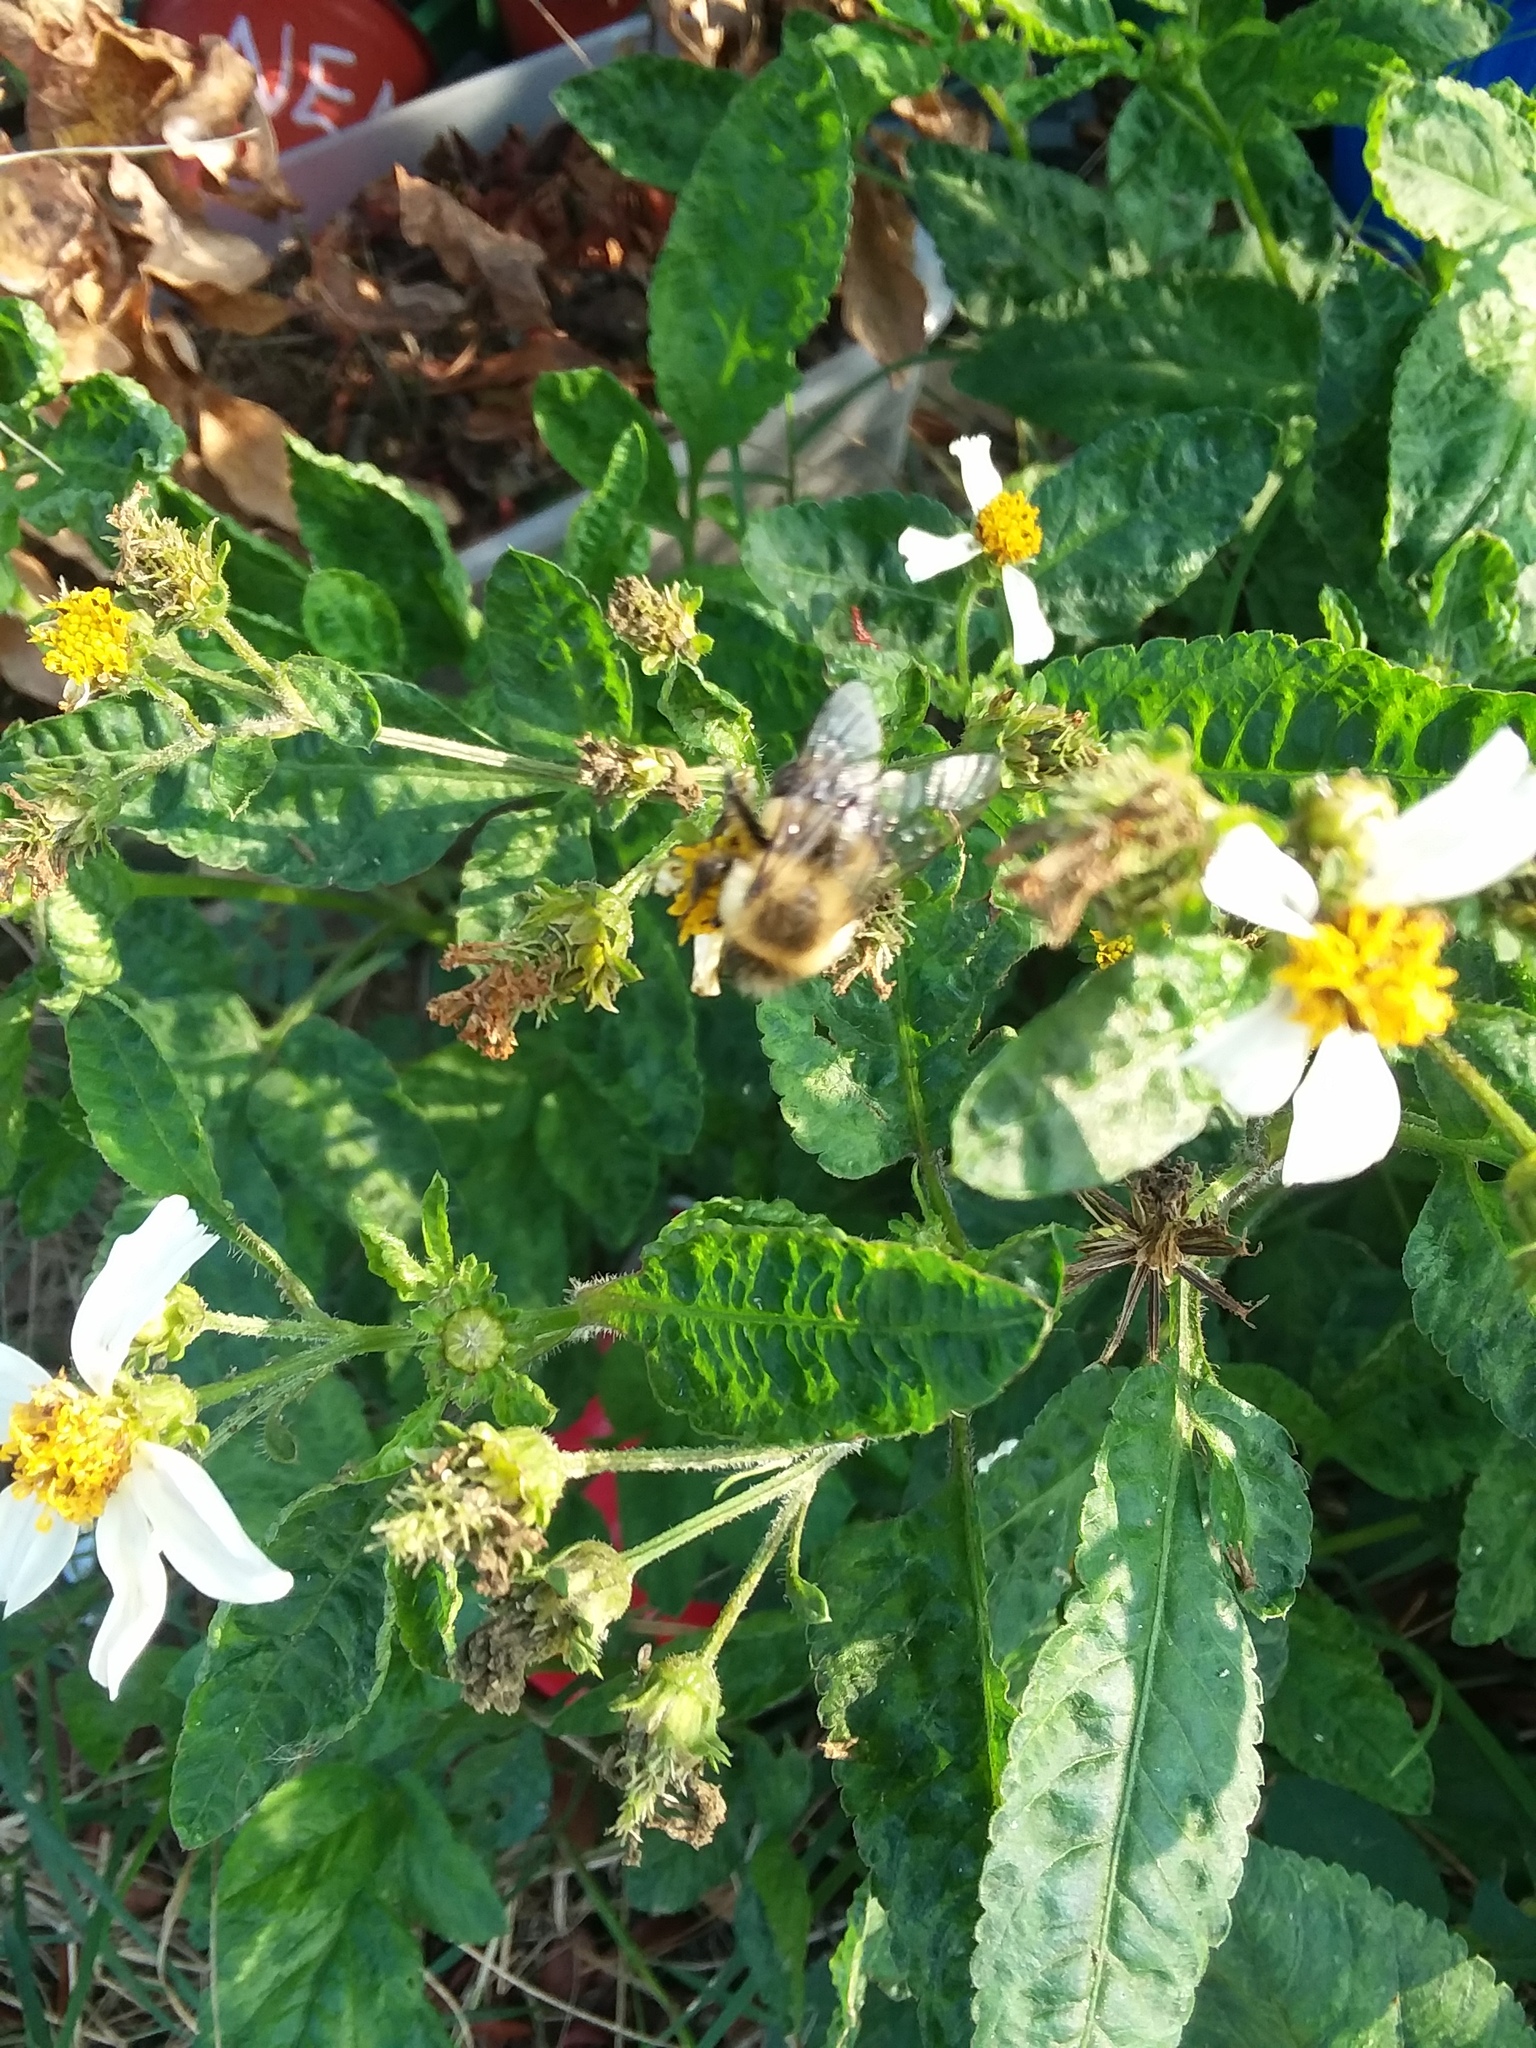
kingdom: Plantae
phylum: Tracheophyta
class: Magnoliopsida
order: Asterales
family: Asteraceae
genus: Bidens
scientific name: Bidens alba
